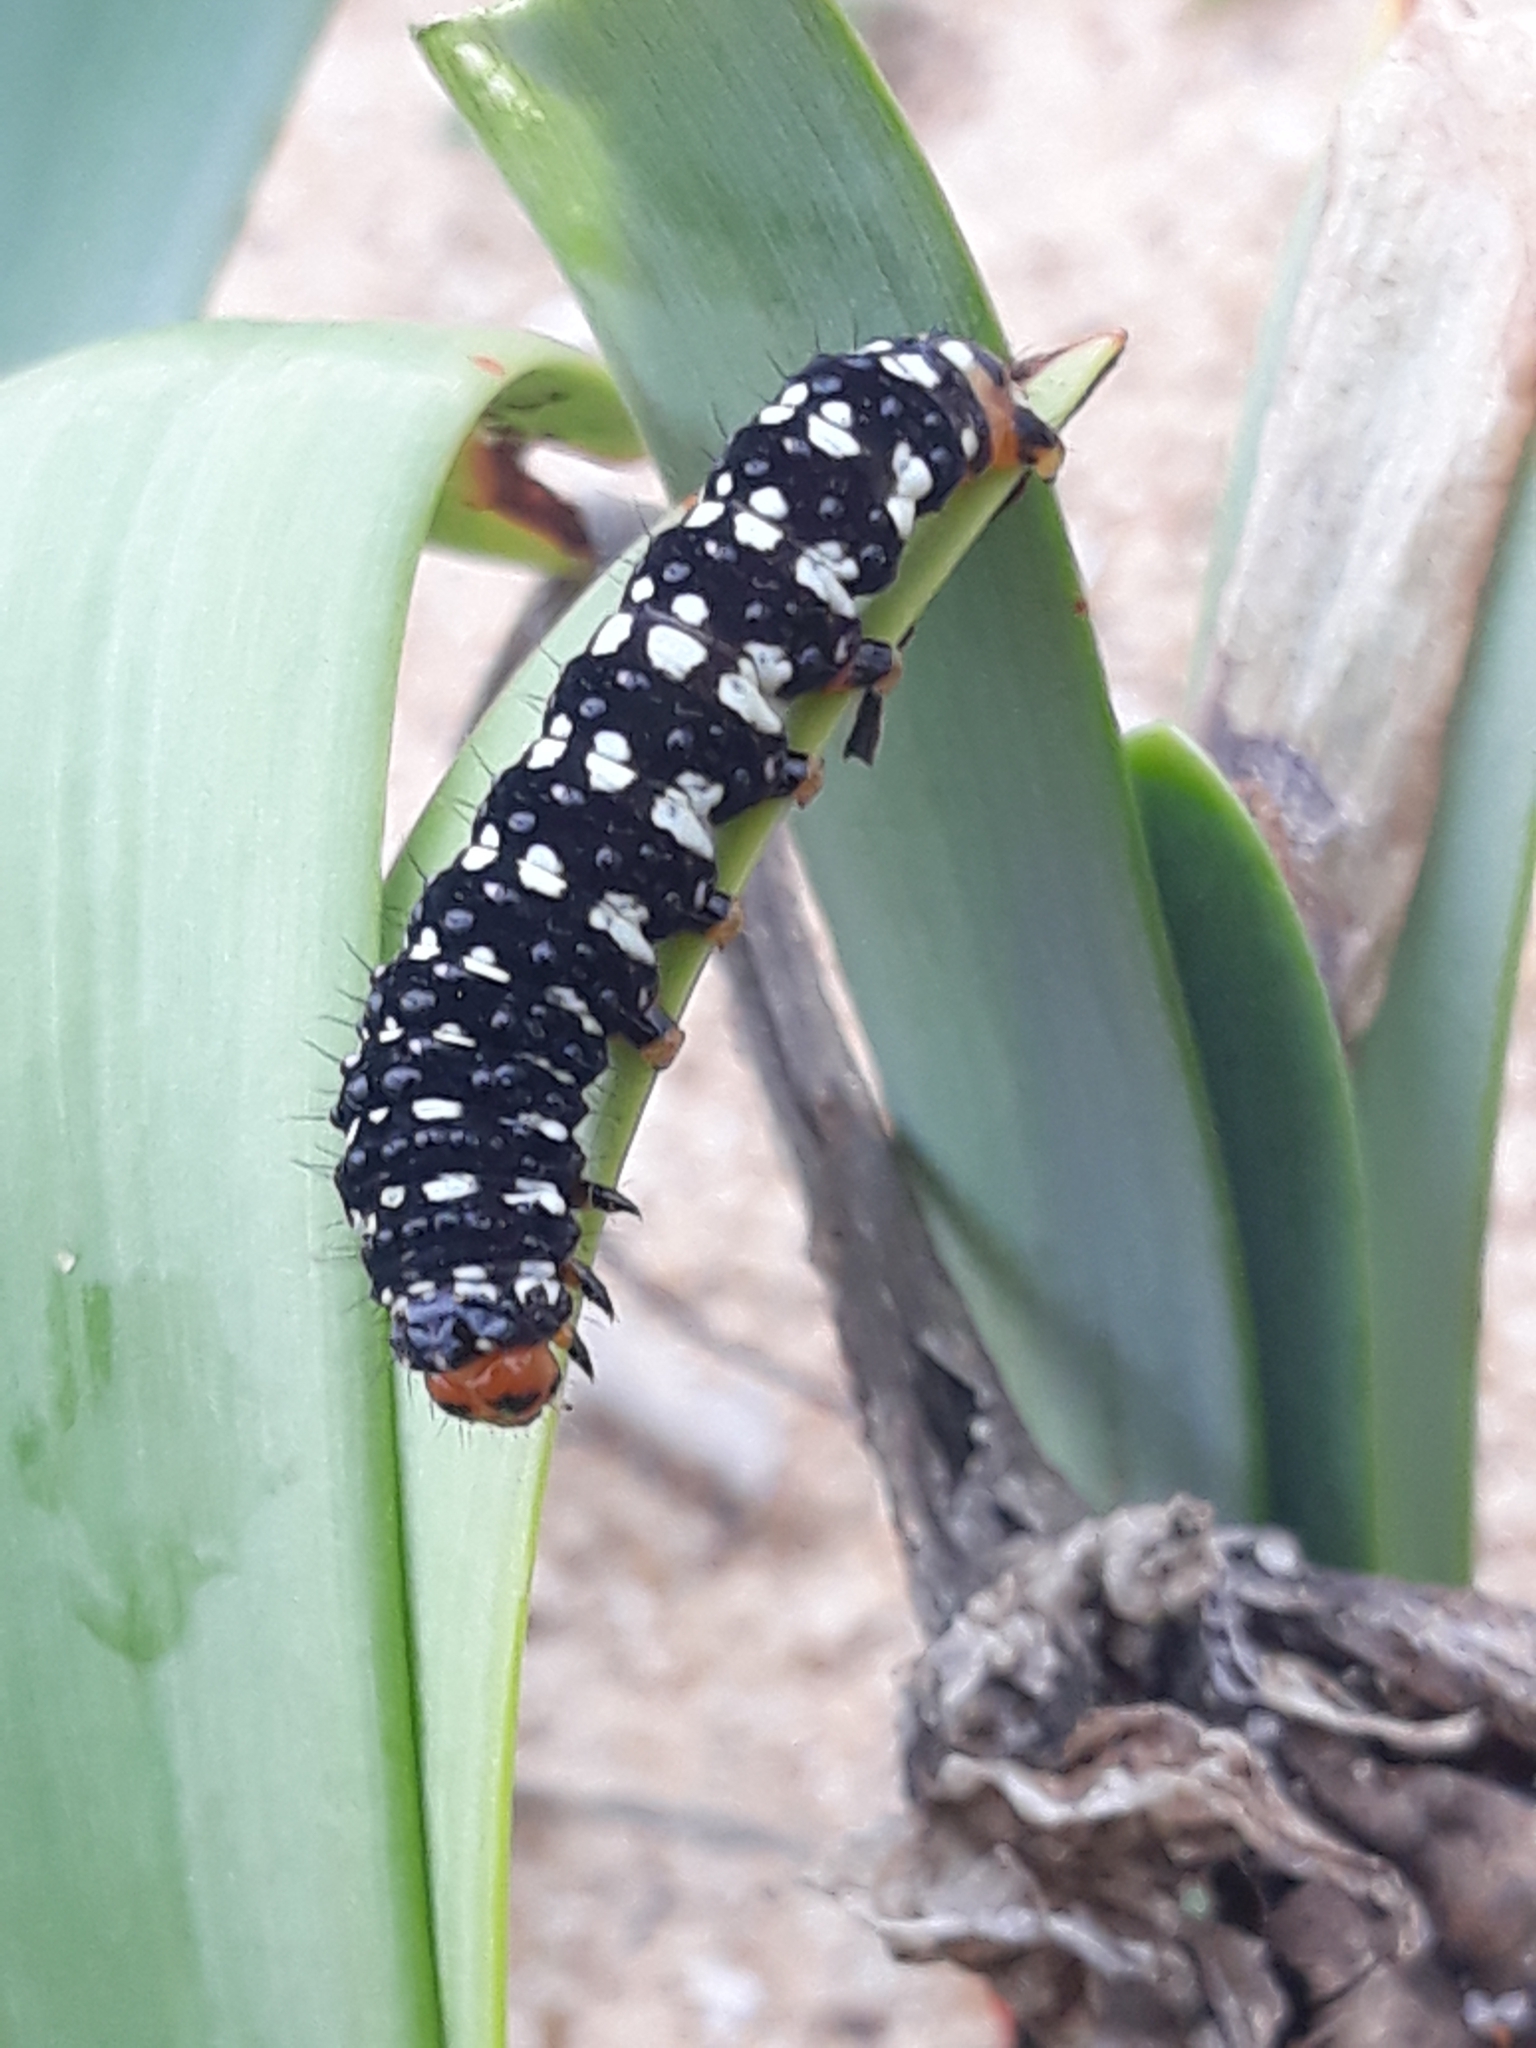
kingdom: Animalia
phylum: Arthropoda
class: Insecta
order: Lepidoptera
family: Noctuidae
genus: Brithys
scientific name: Brithys crini
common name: Kew arches
